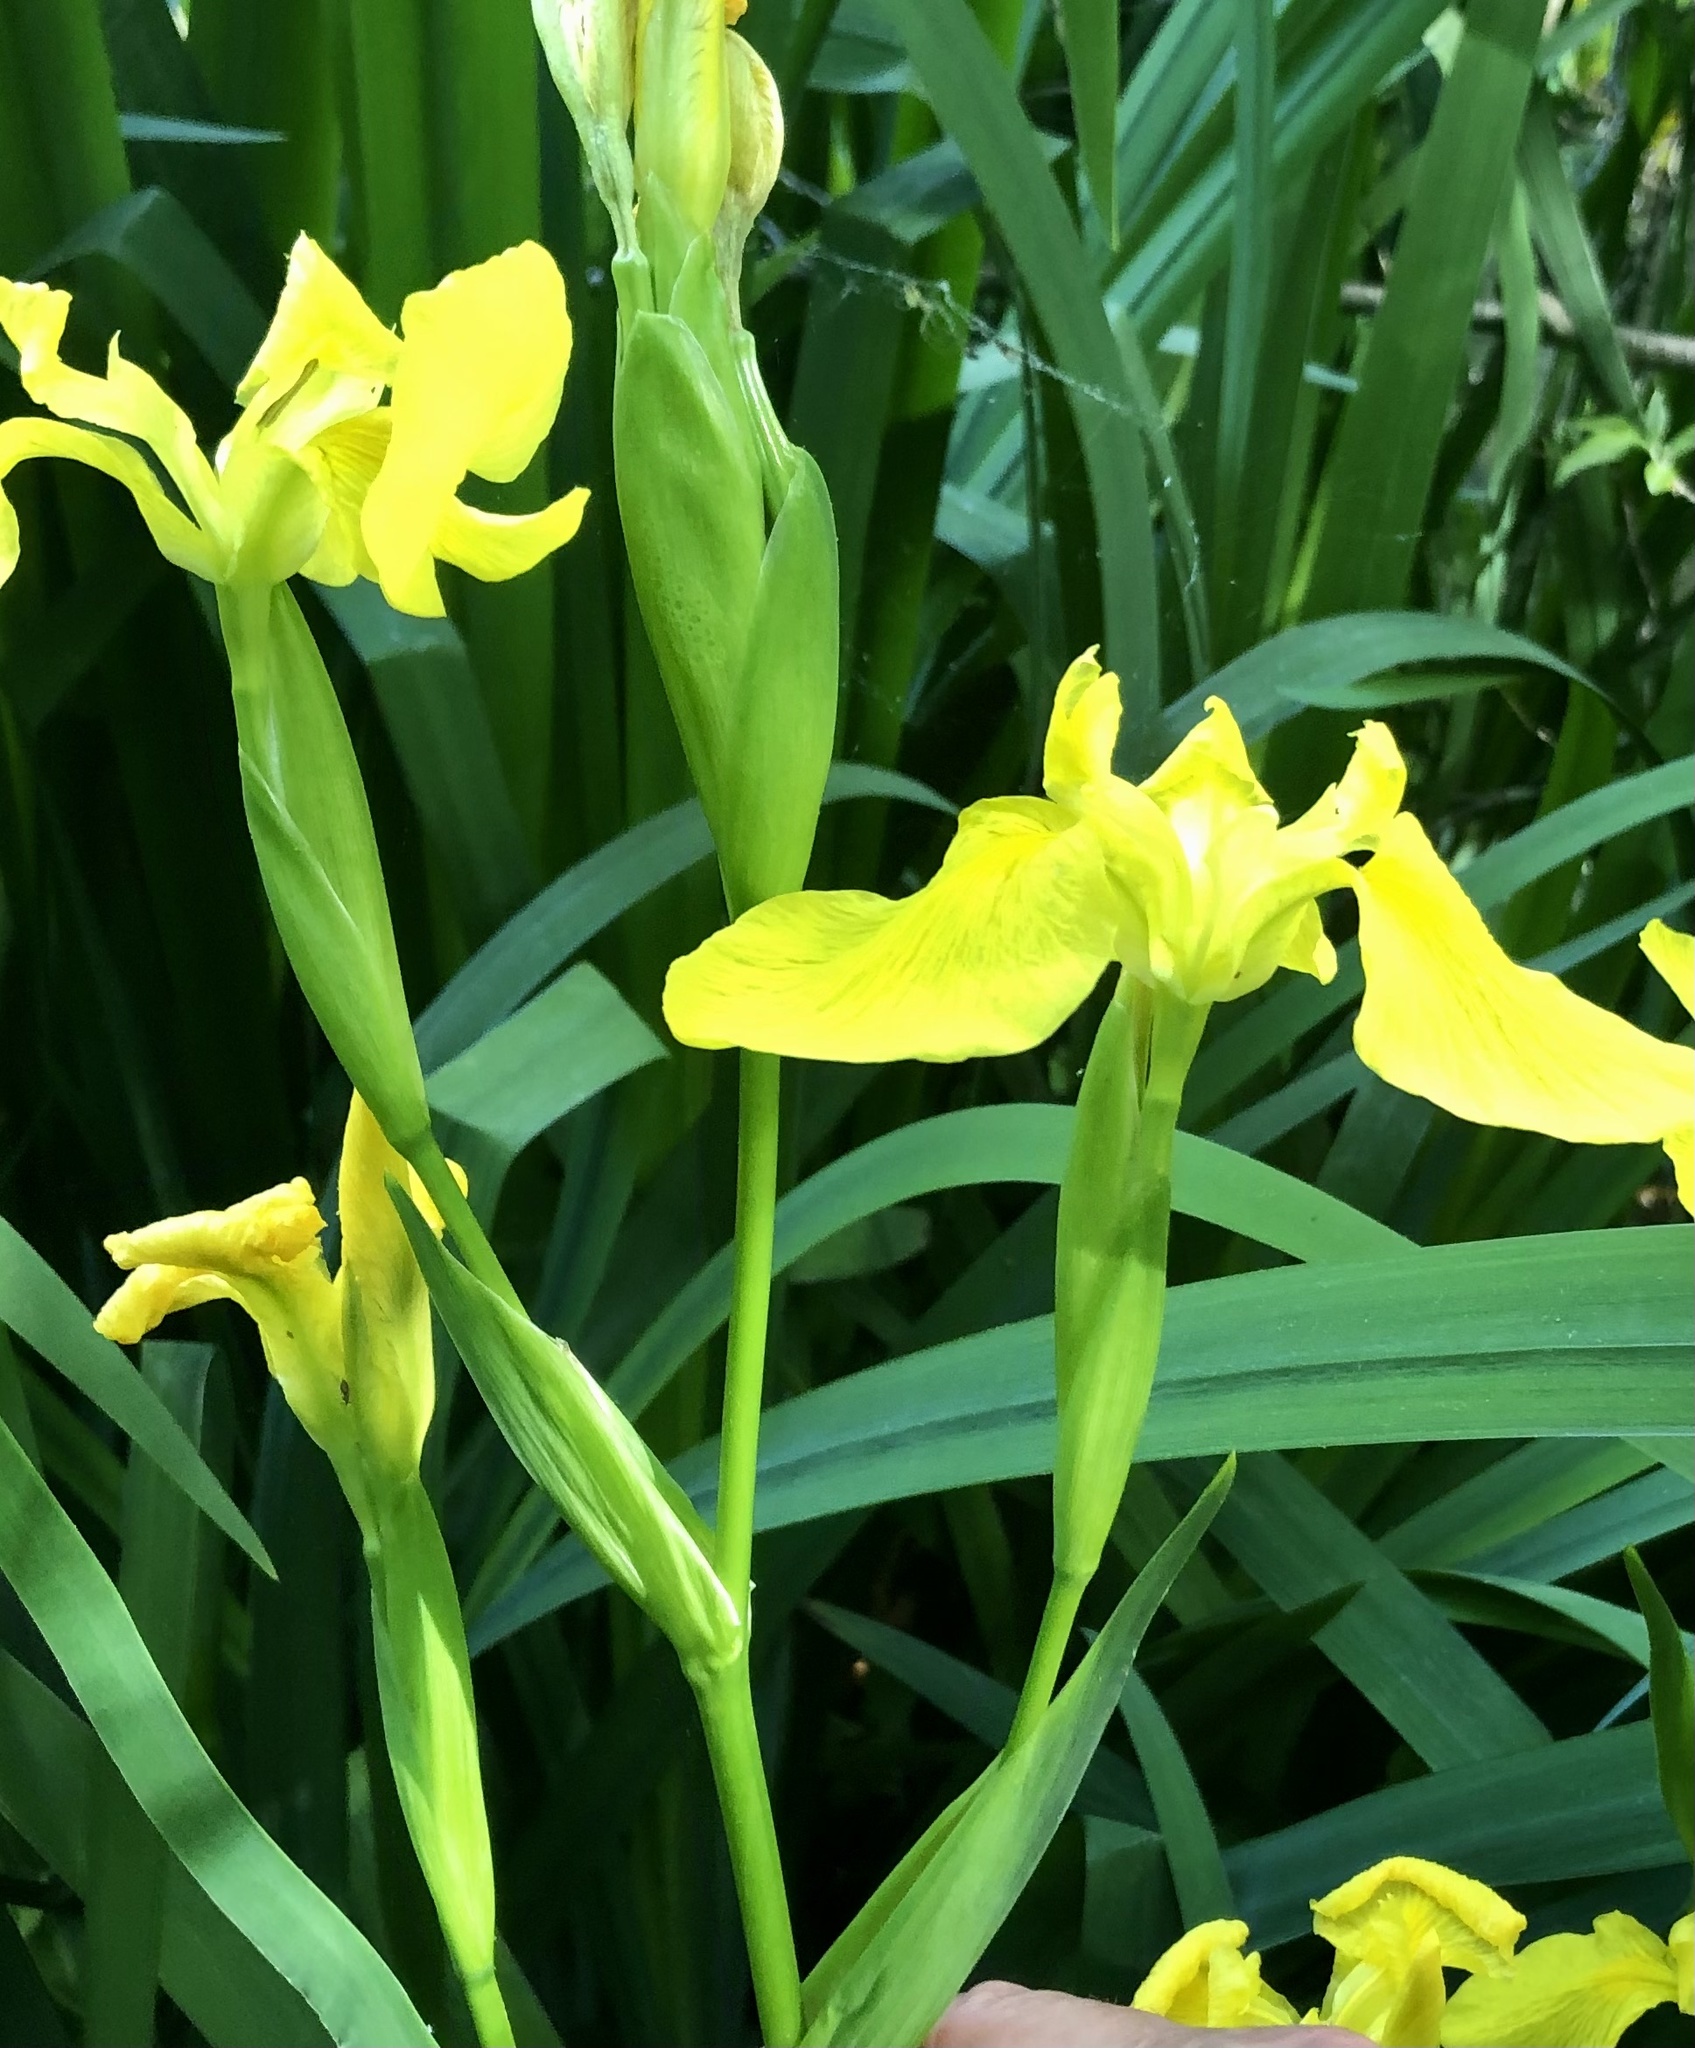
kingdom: Plantae
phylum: Tracheophyta
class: Liliopsida
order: Asparagales
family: Iridaceae
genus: Iris
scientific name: Iris pseudacorus
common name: Yellow flag
